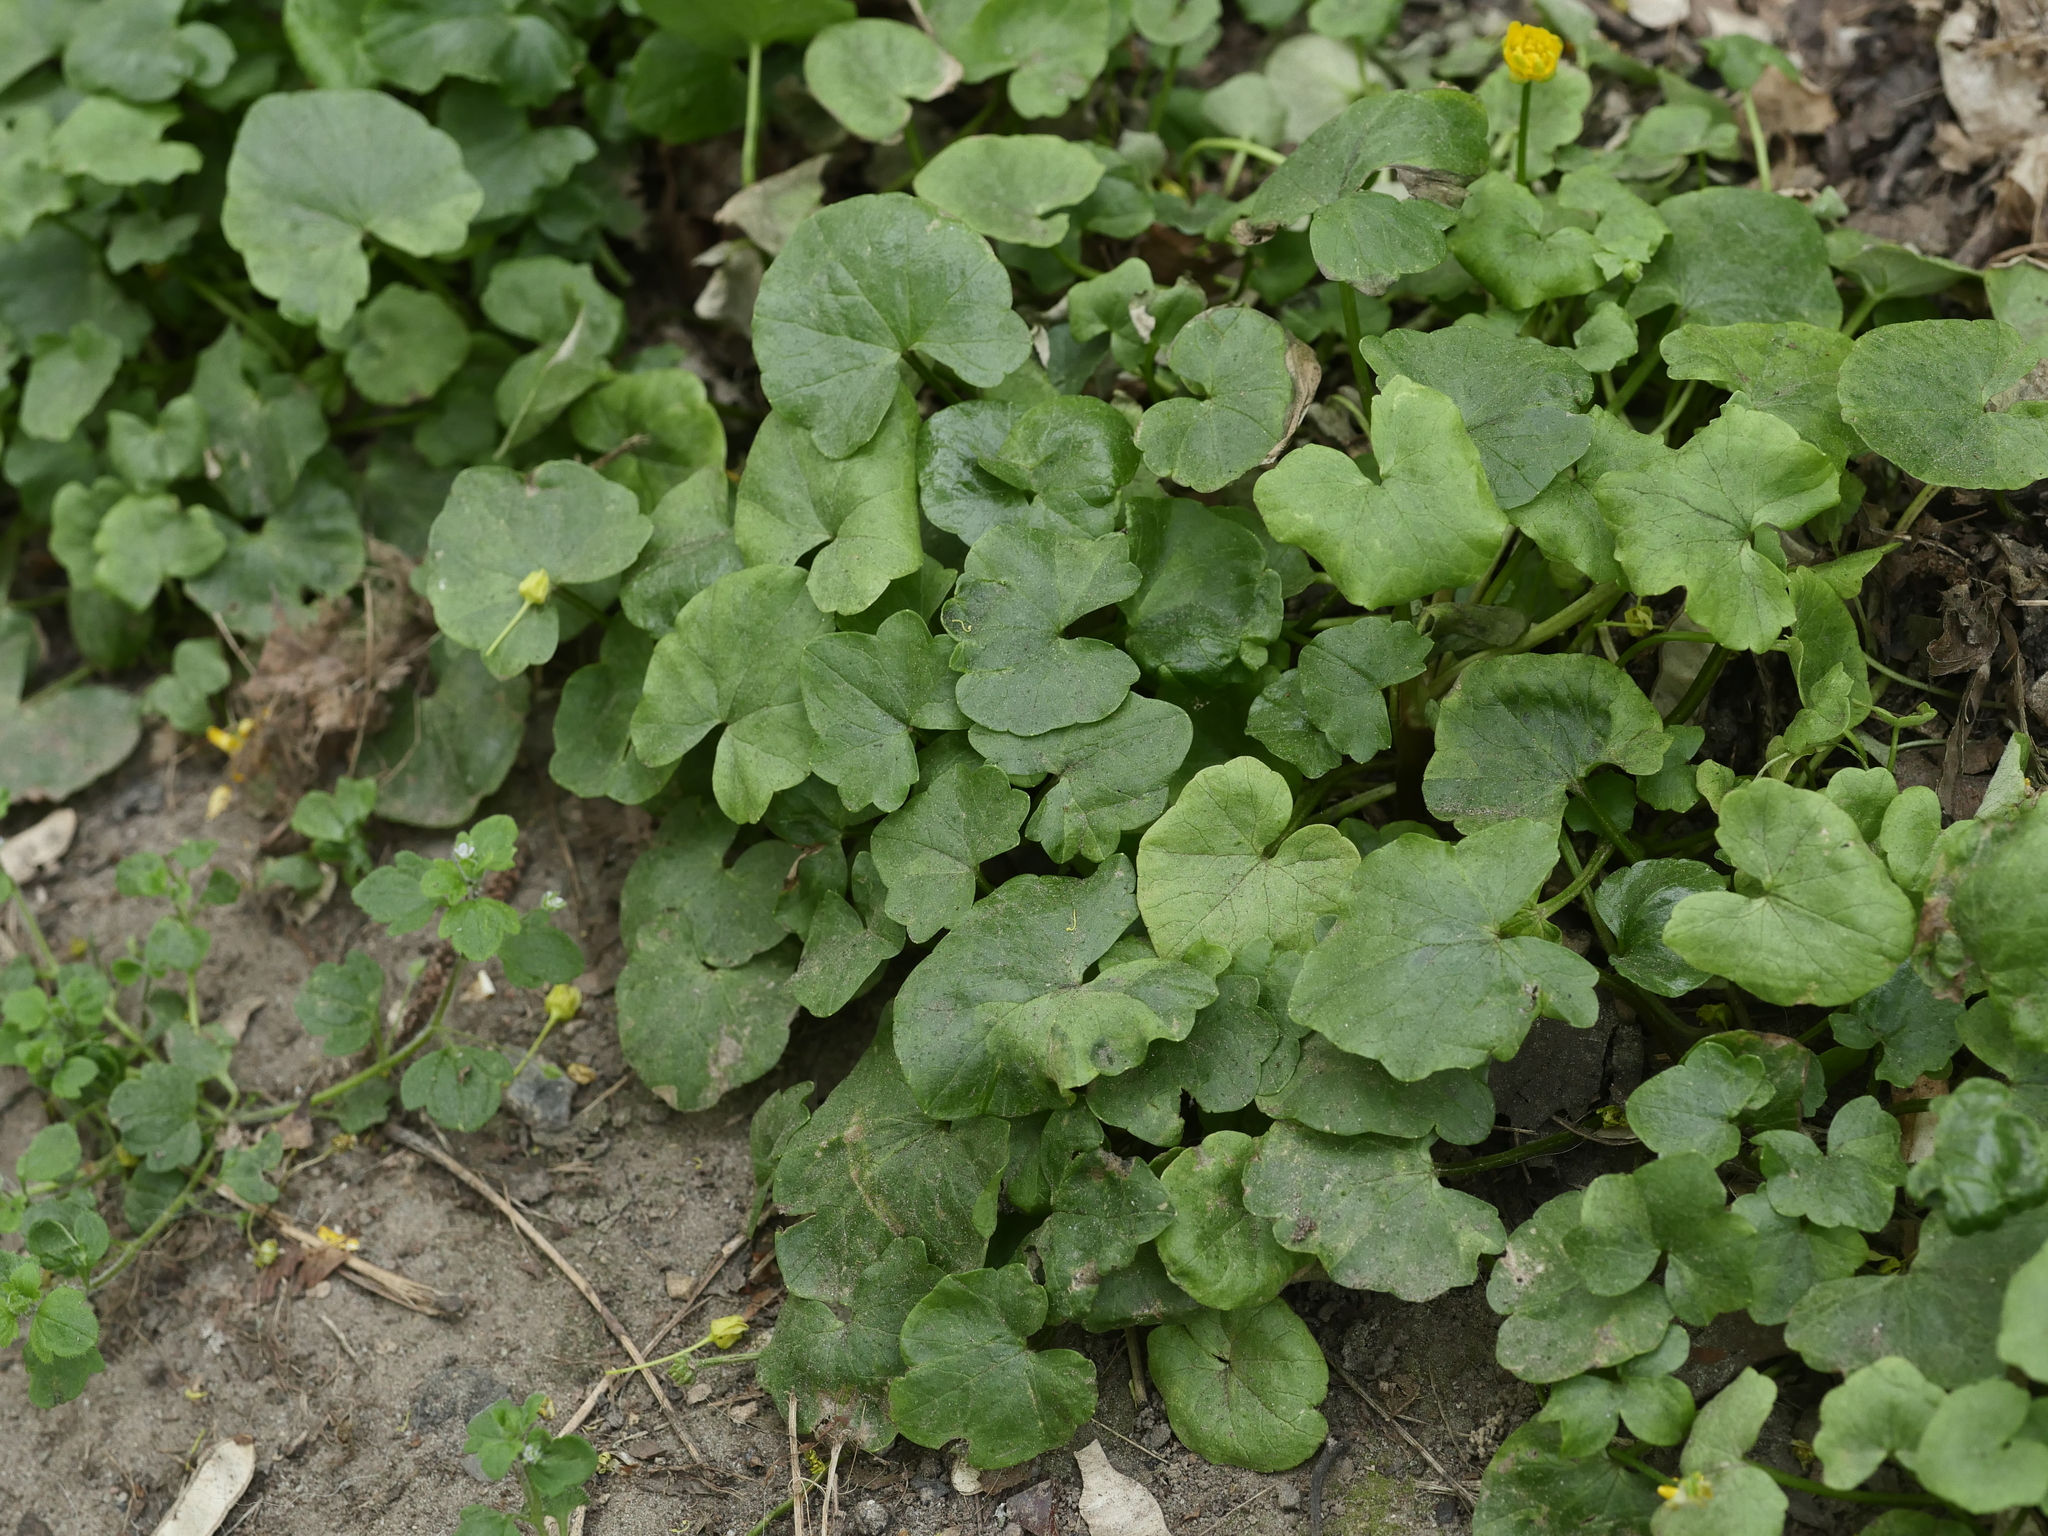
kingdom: Plantae
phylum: Tracheophyta
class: Magnoliopsida
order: Ranunculales
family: Ranunculaceae
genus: Ficaria
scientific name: Ficaria verna
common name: Lesser celandine
